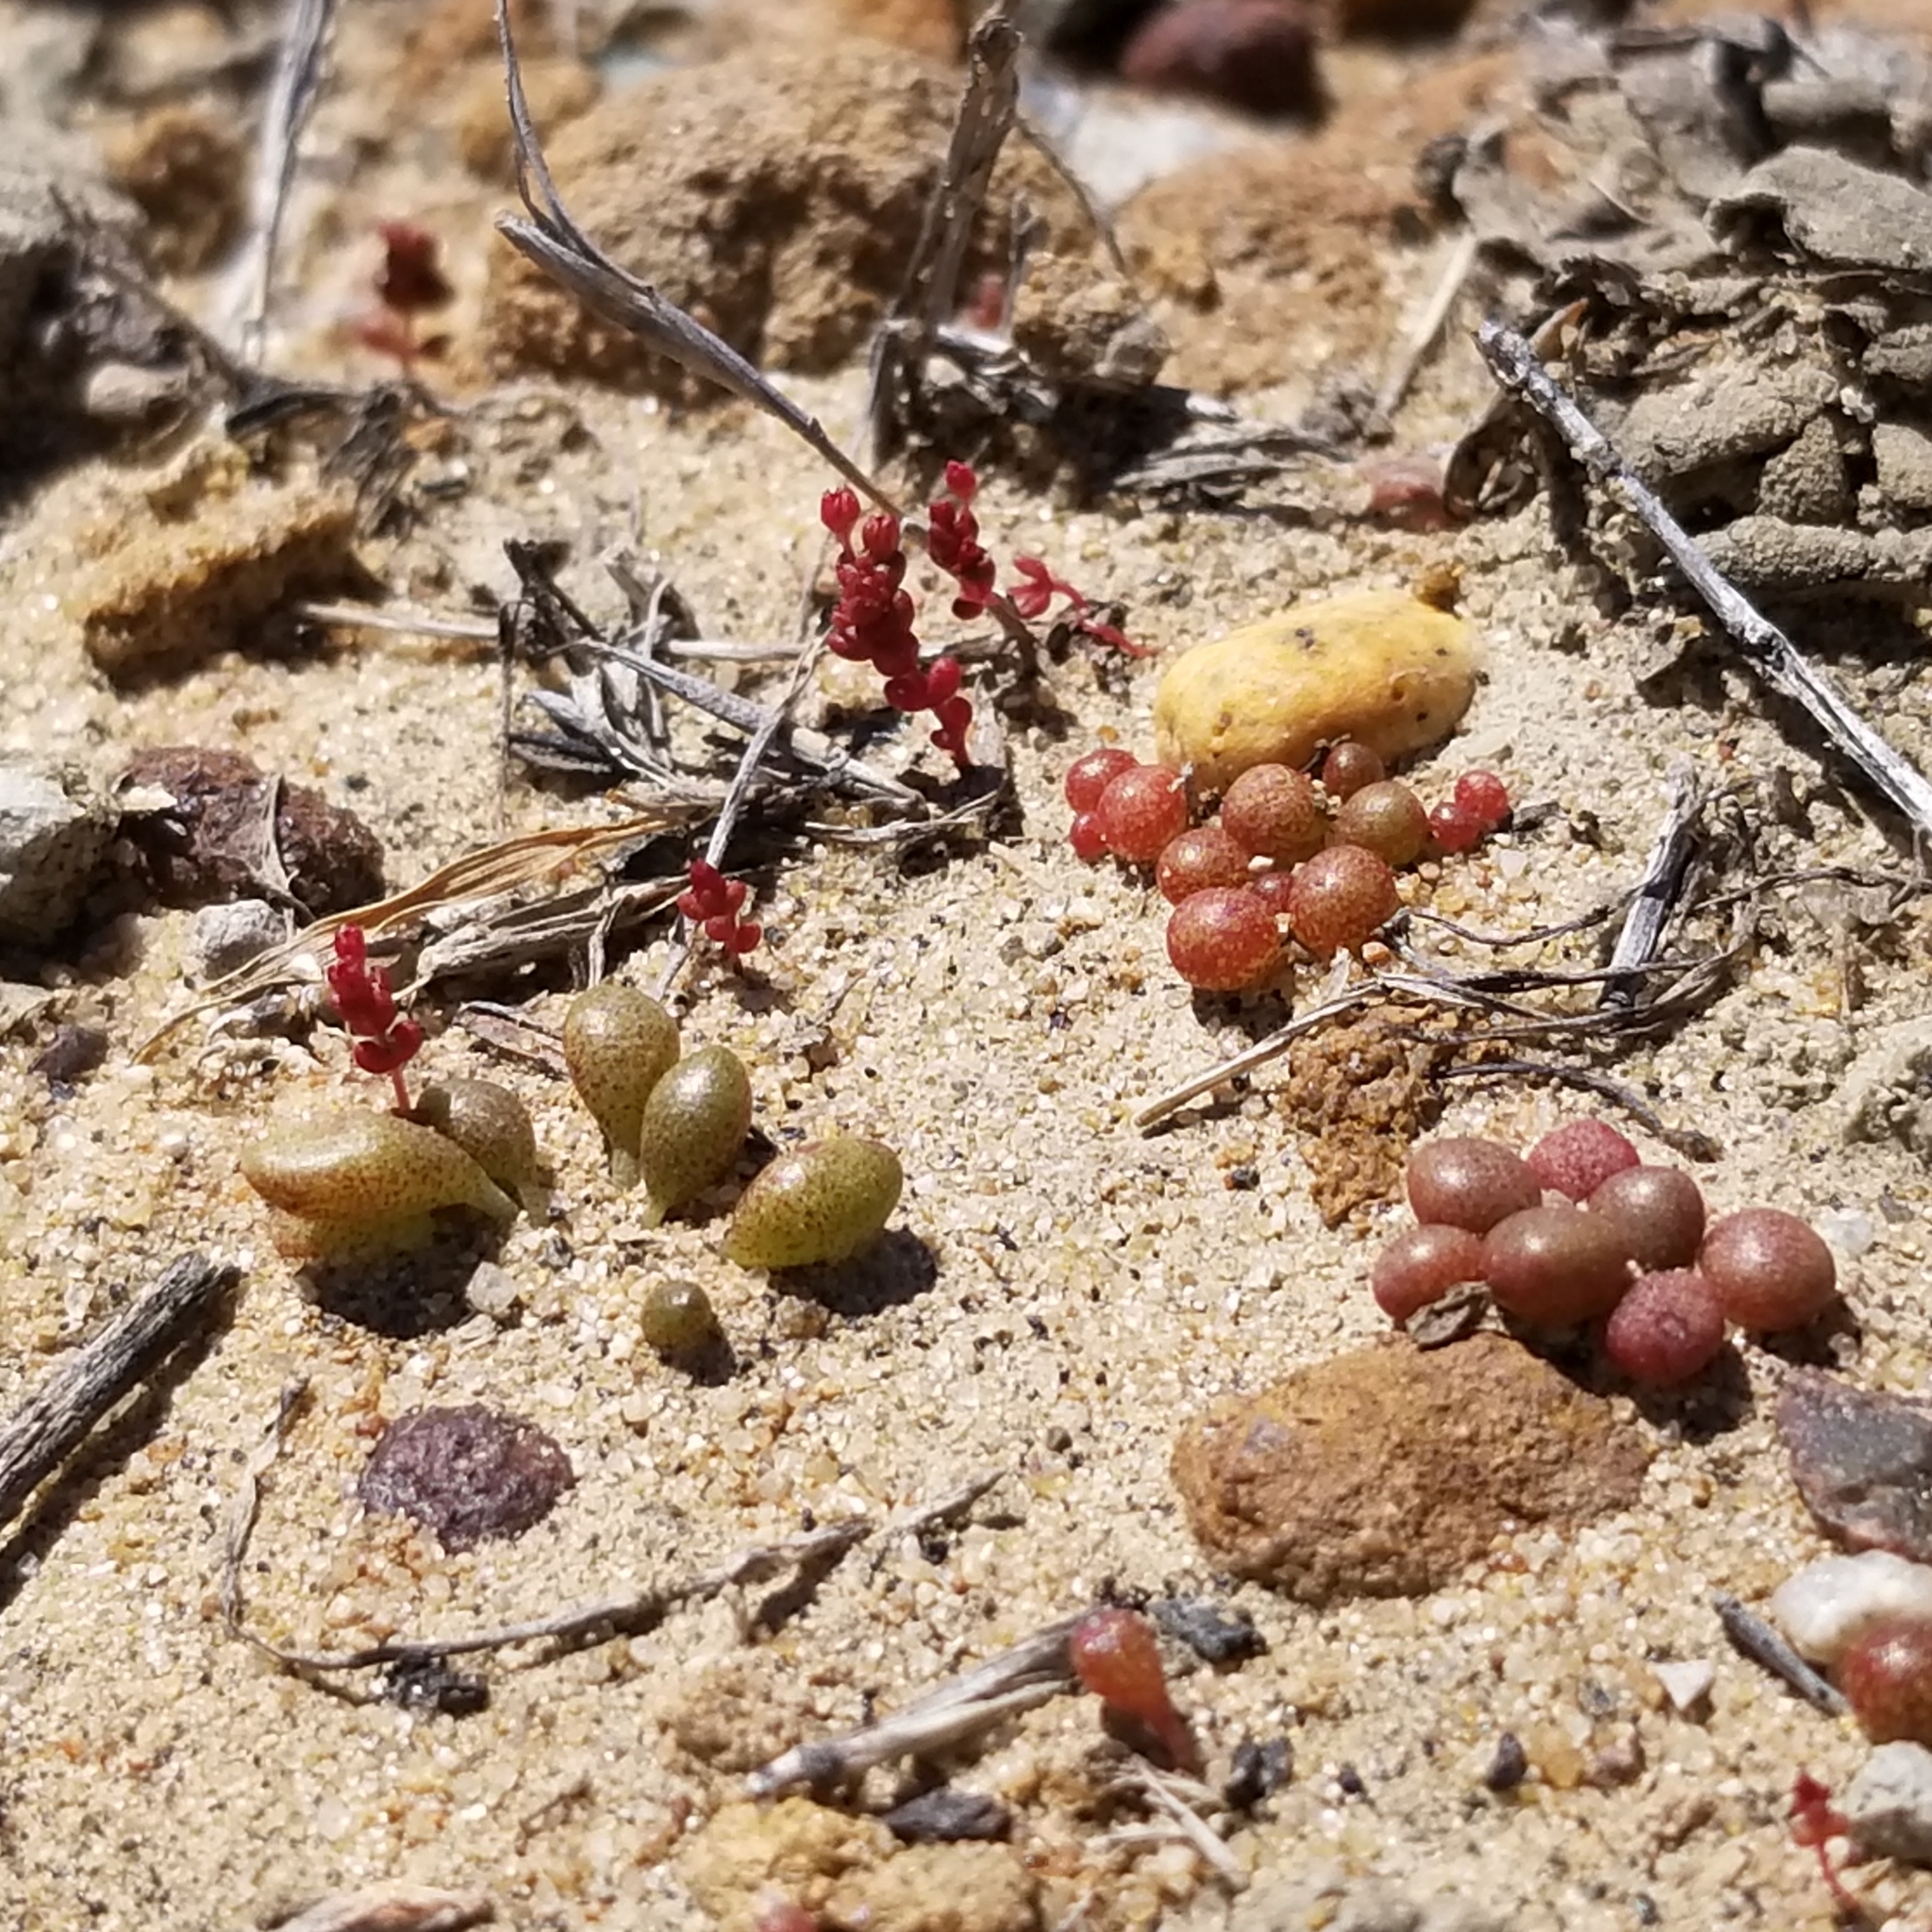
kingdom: Plantae
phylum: Tracheophyta
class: Magnoliopsida
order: Saxifragales
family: Crassulaceae
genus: Dudleya
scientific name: Dudleya blochmaniae
